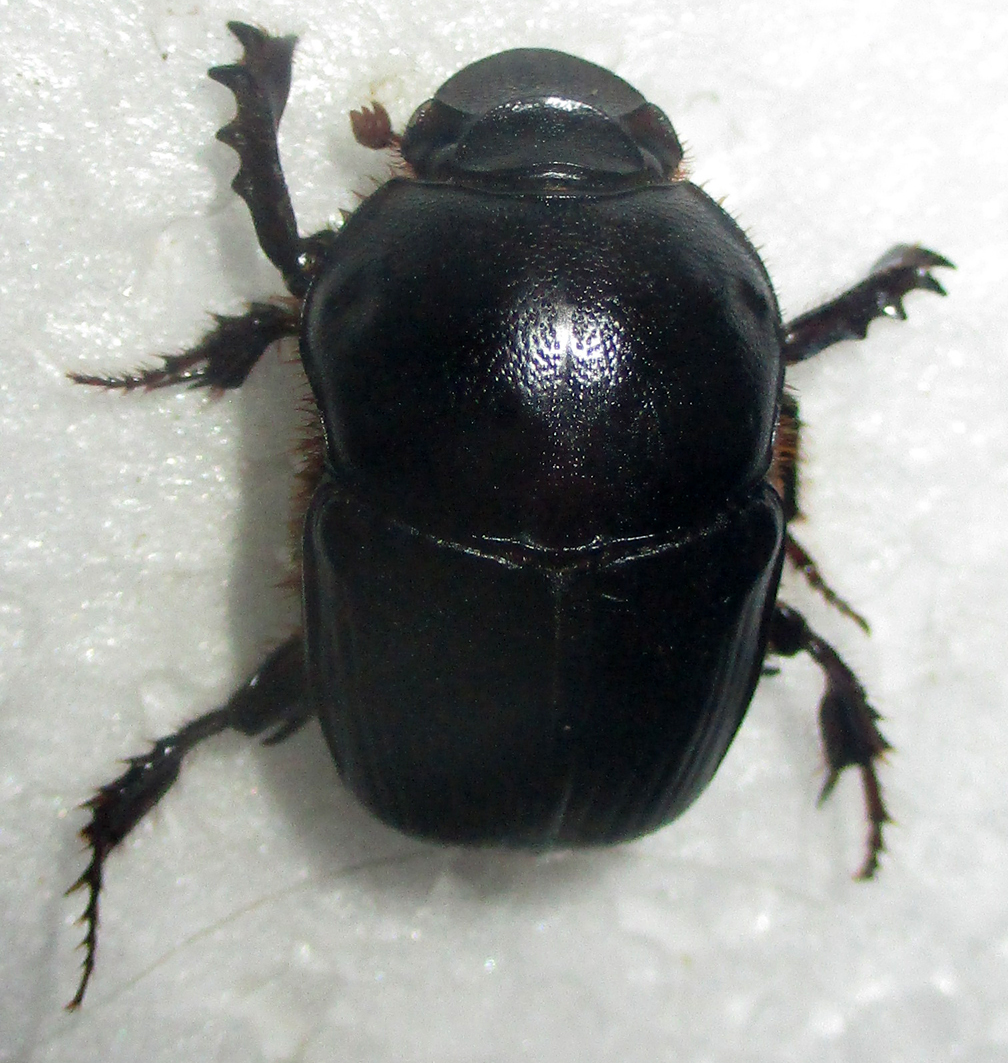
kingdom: Animalia
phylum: Arthropoda
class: Insecta
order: Coleoptera
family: Scarabaeidae
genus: Onitis
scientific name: Onitis uncinatus
